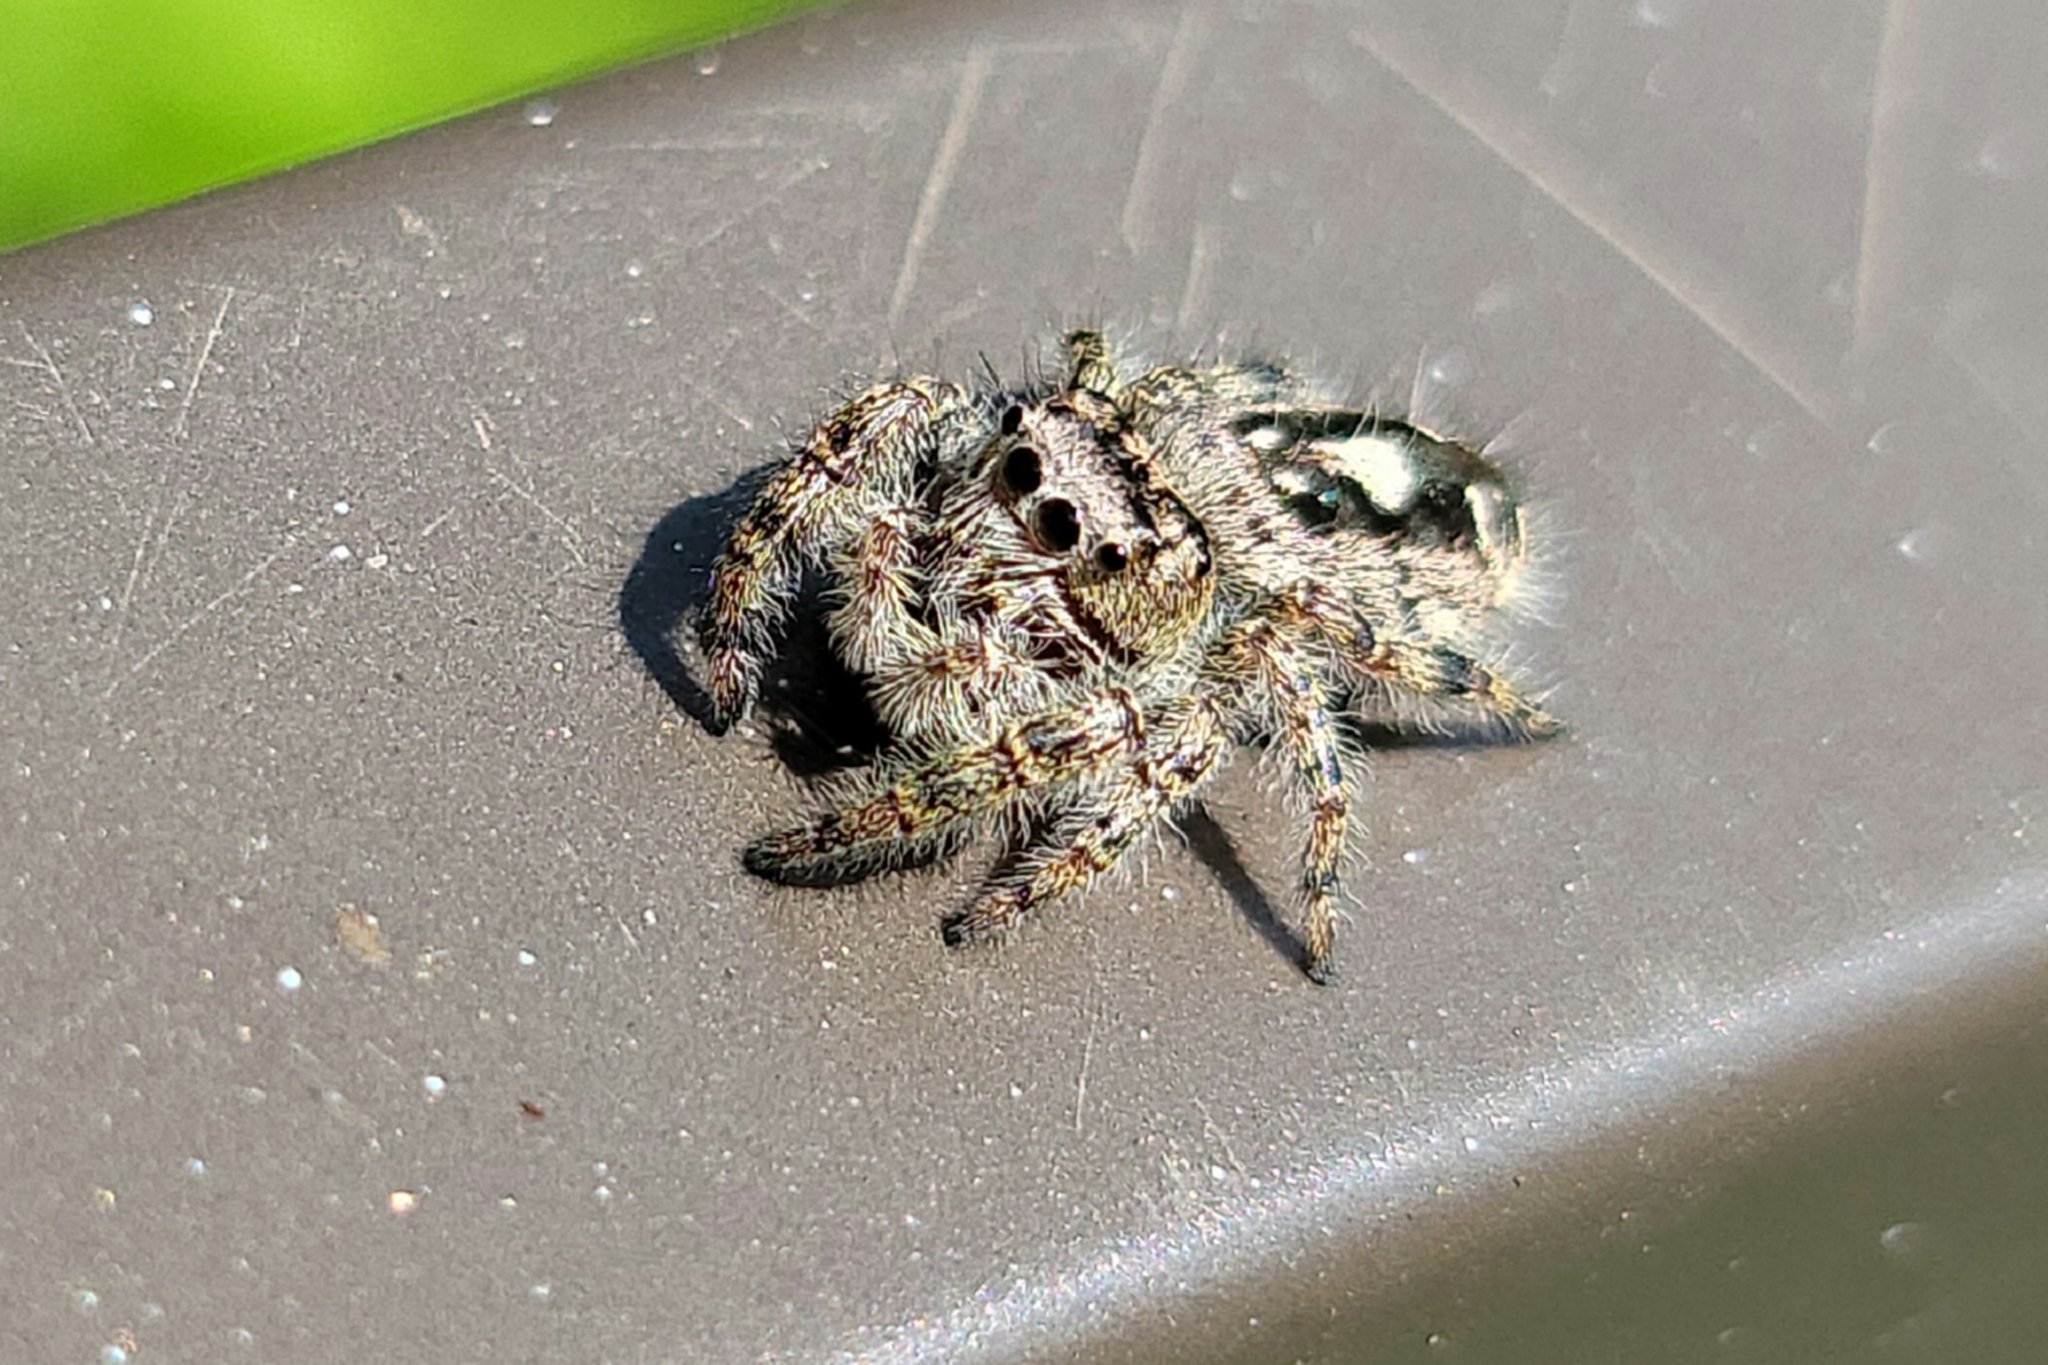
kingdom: Animalia
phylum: Arthropoda
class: Arachnida
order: Araneae
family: Salticidae
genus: Phidippus
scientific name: Phidippus putnami
